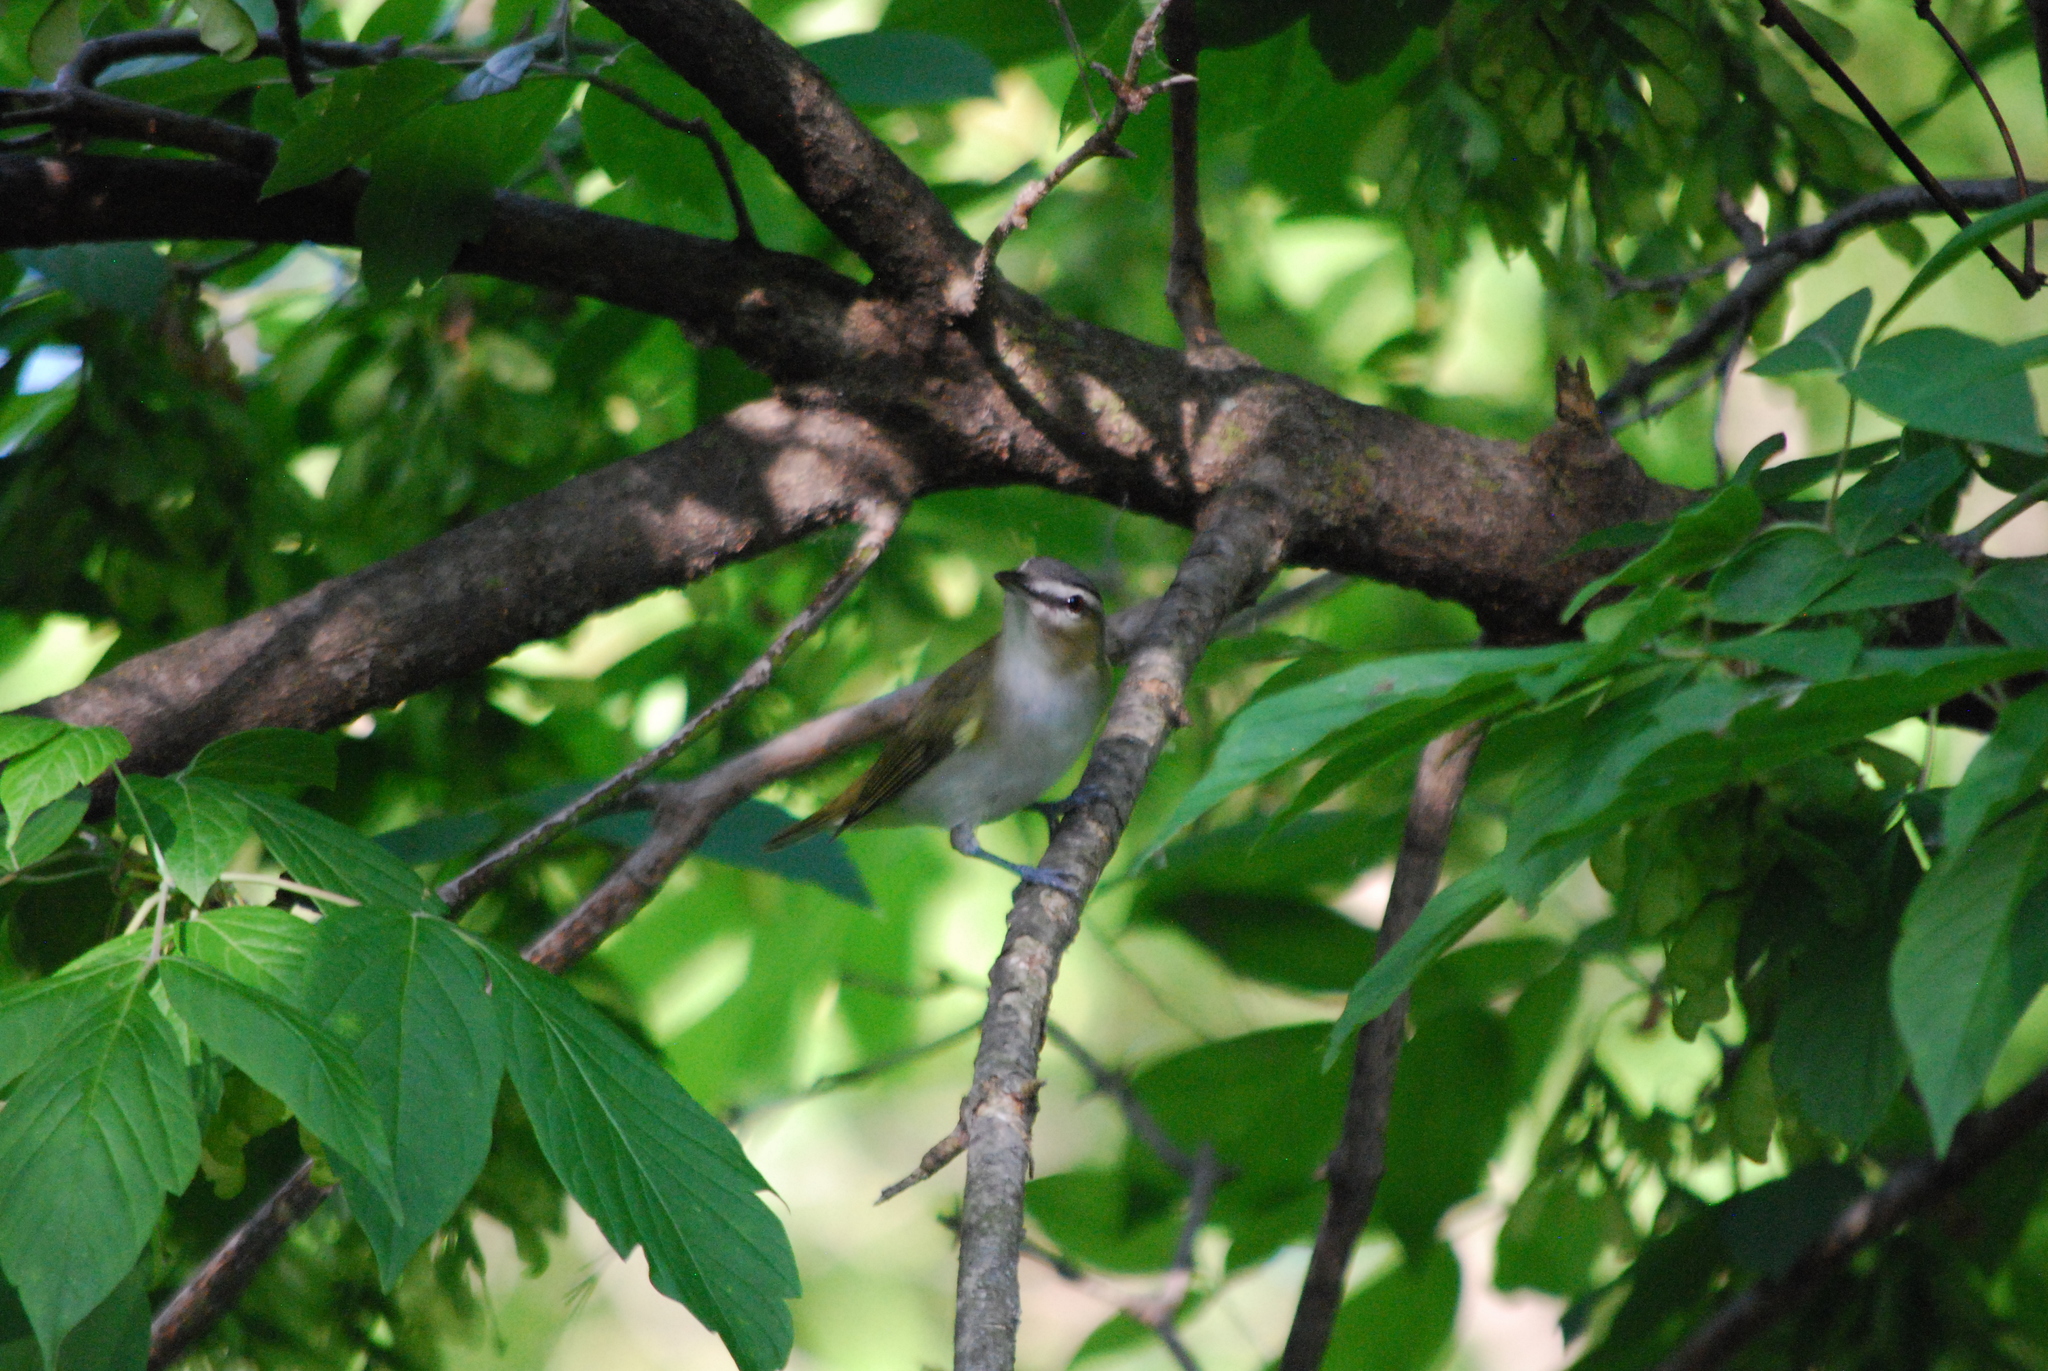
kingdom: Animalia
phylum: Chordata
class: Aves
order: Passeriformes
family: Vireonidae
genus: Vireo
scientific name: Vireo olivaceus
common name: Red-eyed vireo
